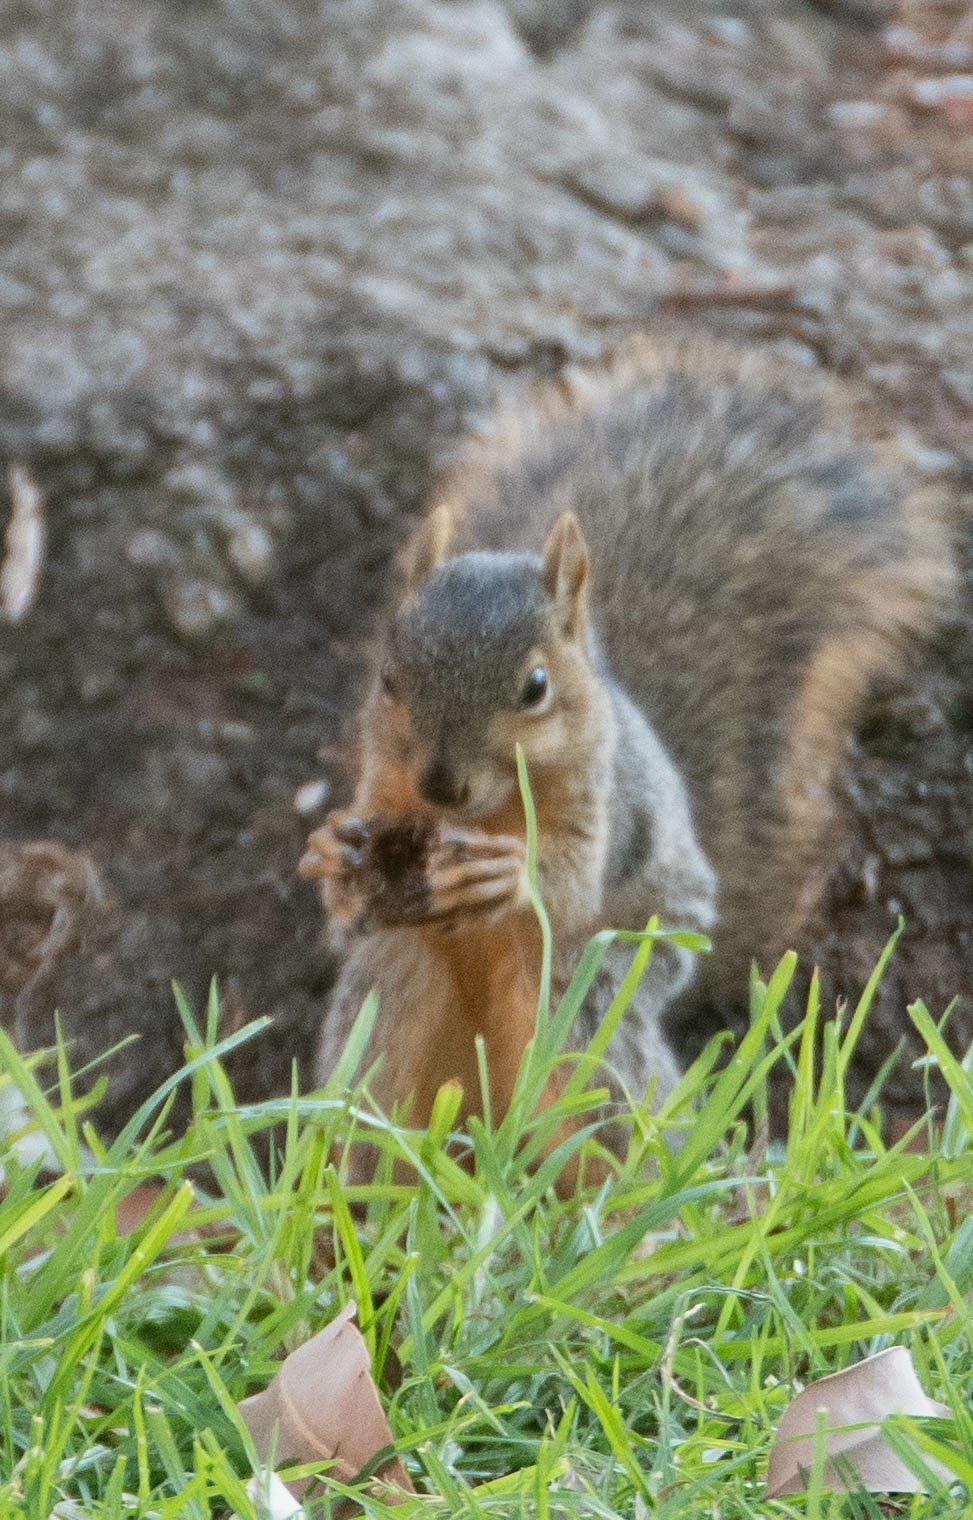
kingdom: Animalia
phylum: Chordata
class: Mammalia
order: Rodentia
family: Sciuridae
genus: Sciurus
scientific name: Sciurus niger
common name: Fox squirrel
